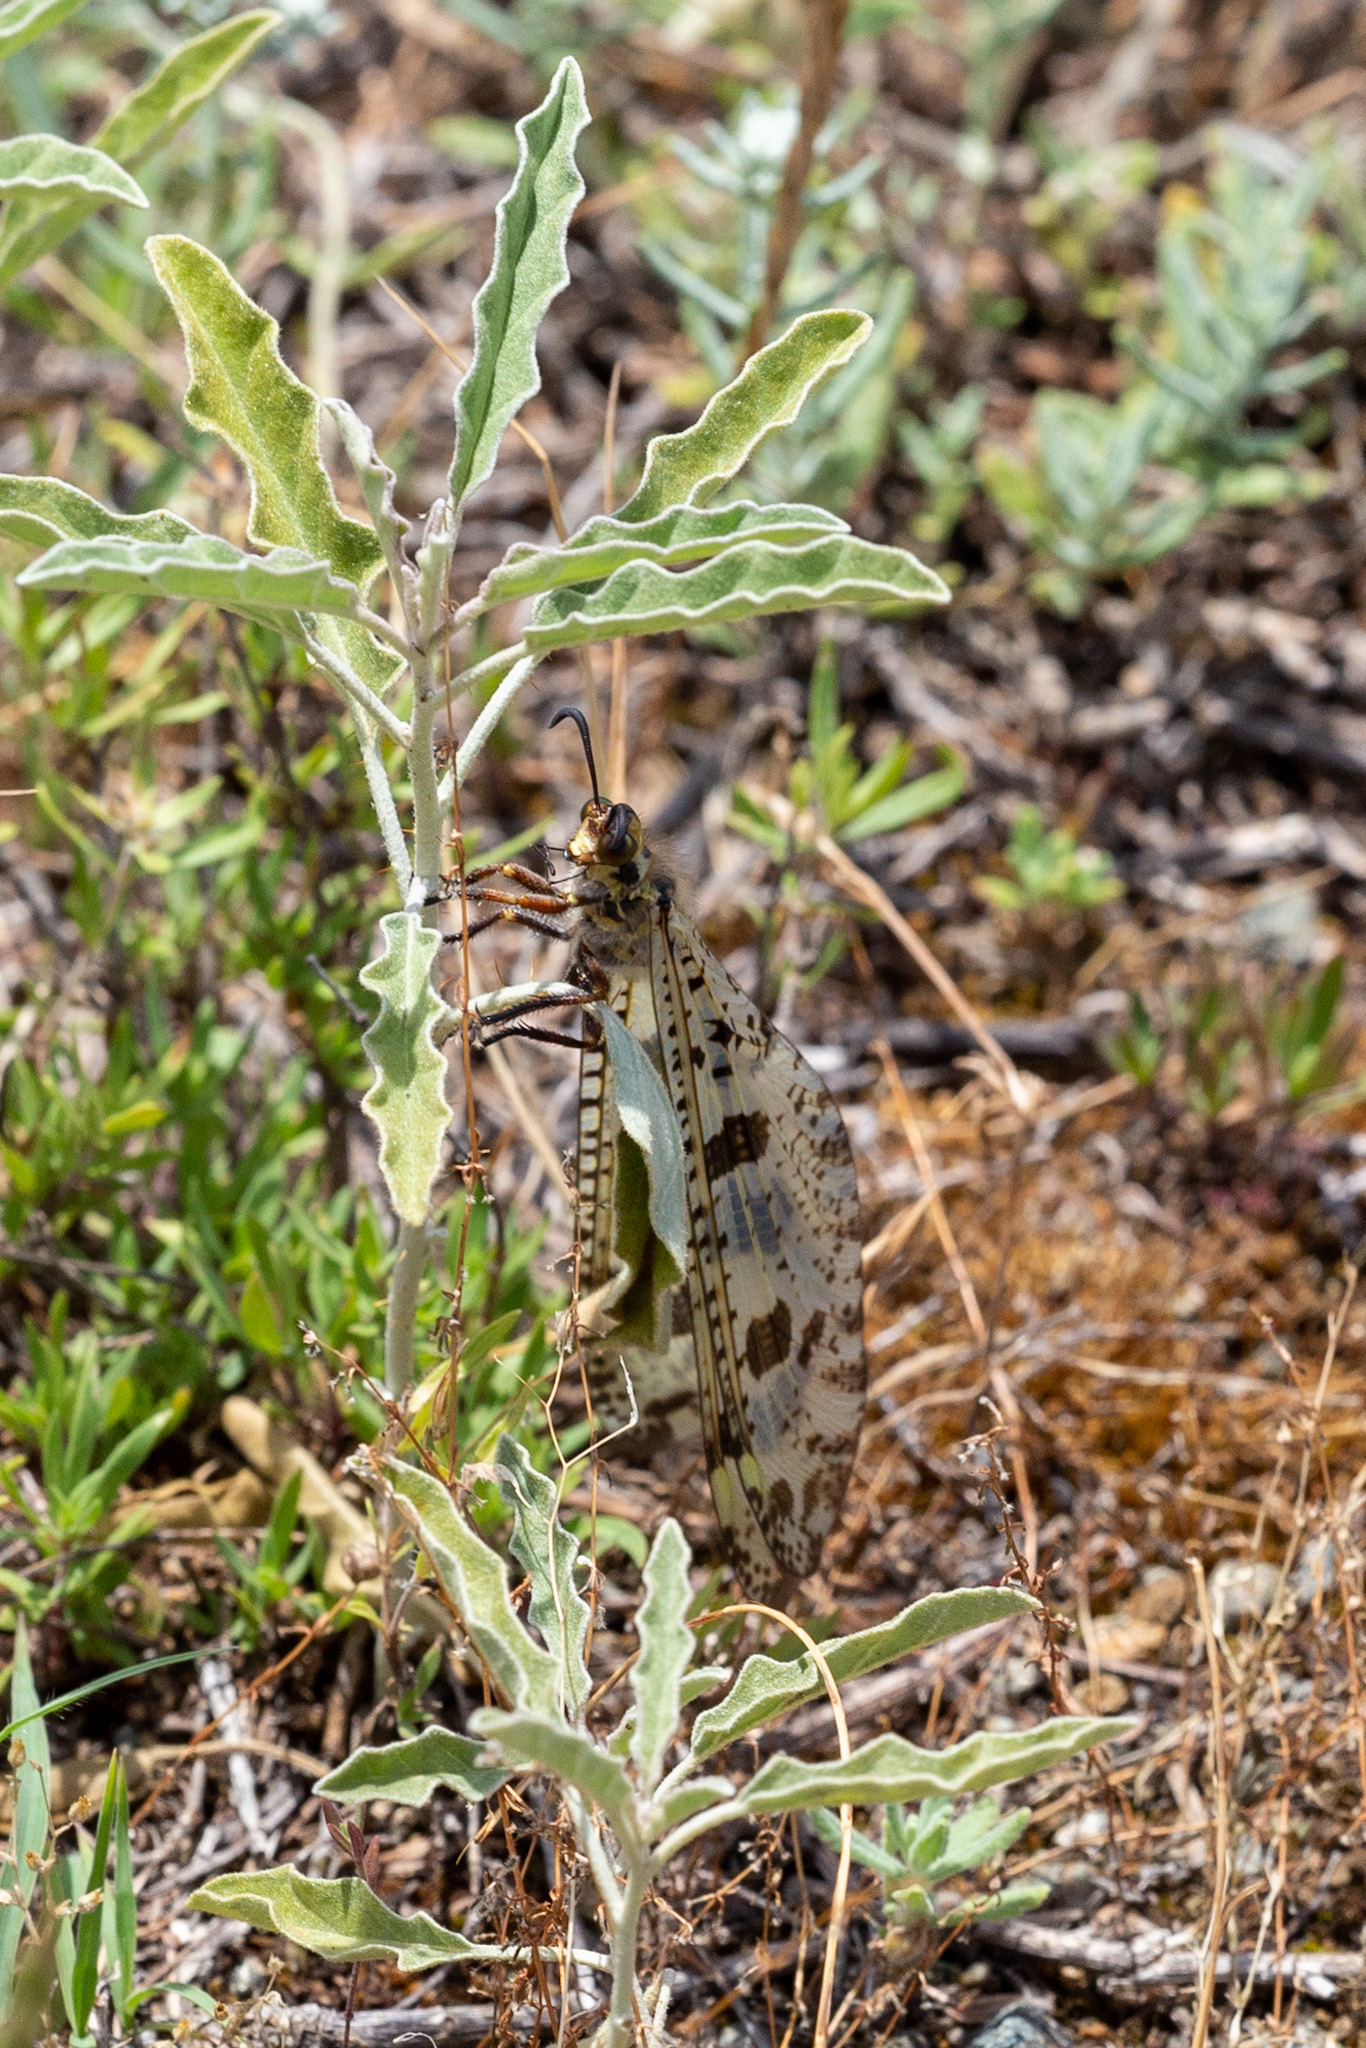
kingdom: Animalia
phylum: Arthropoda
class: Insecta
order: Neuroptera
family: Myrmeleontidae
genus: Palpares
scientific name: Palpares libelluloides
